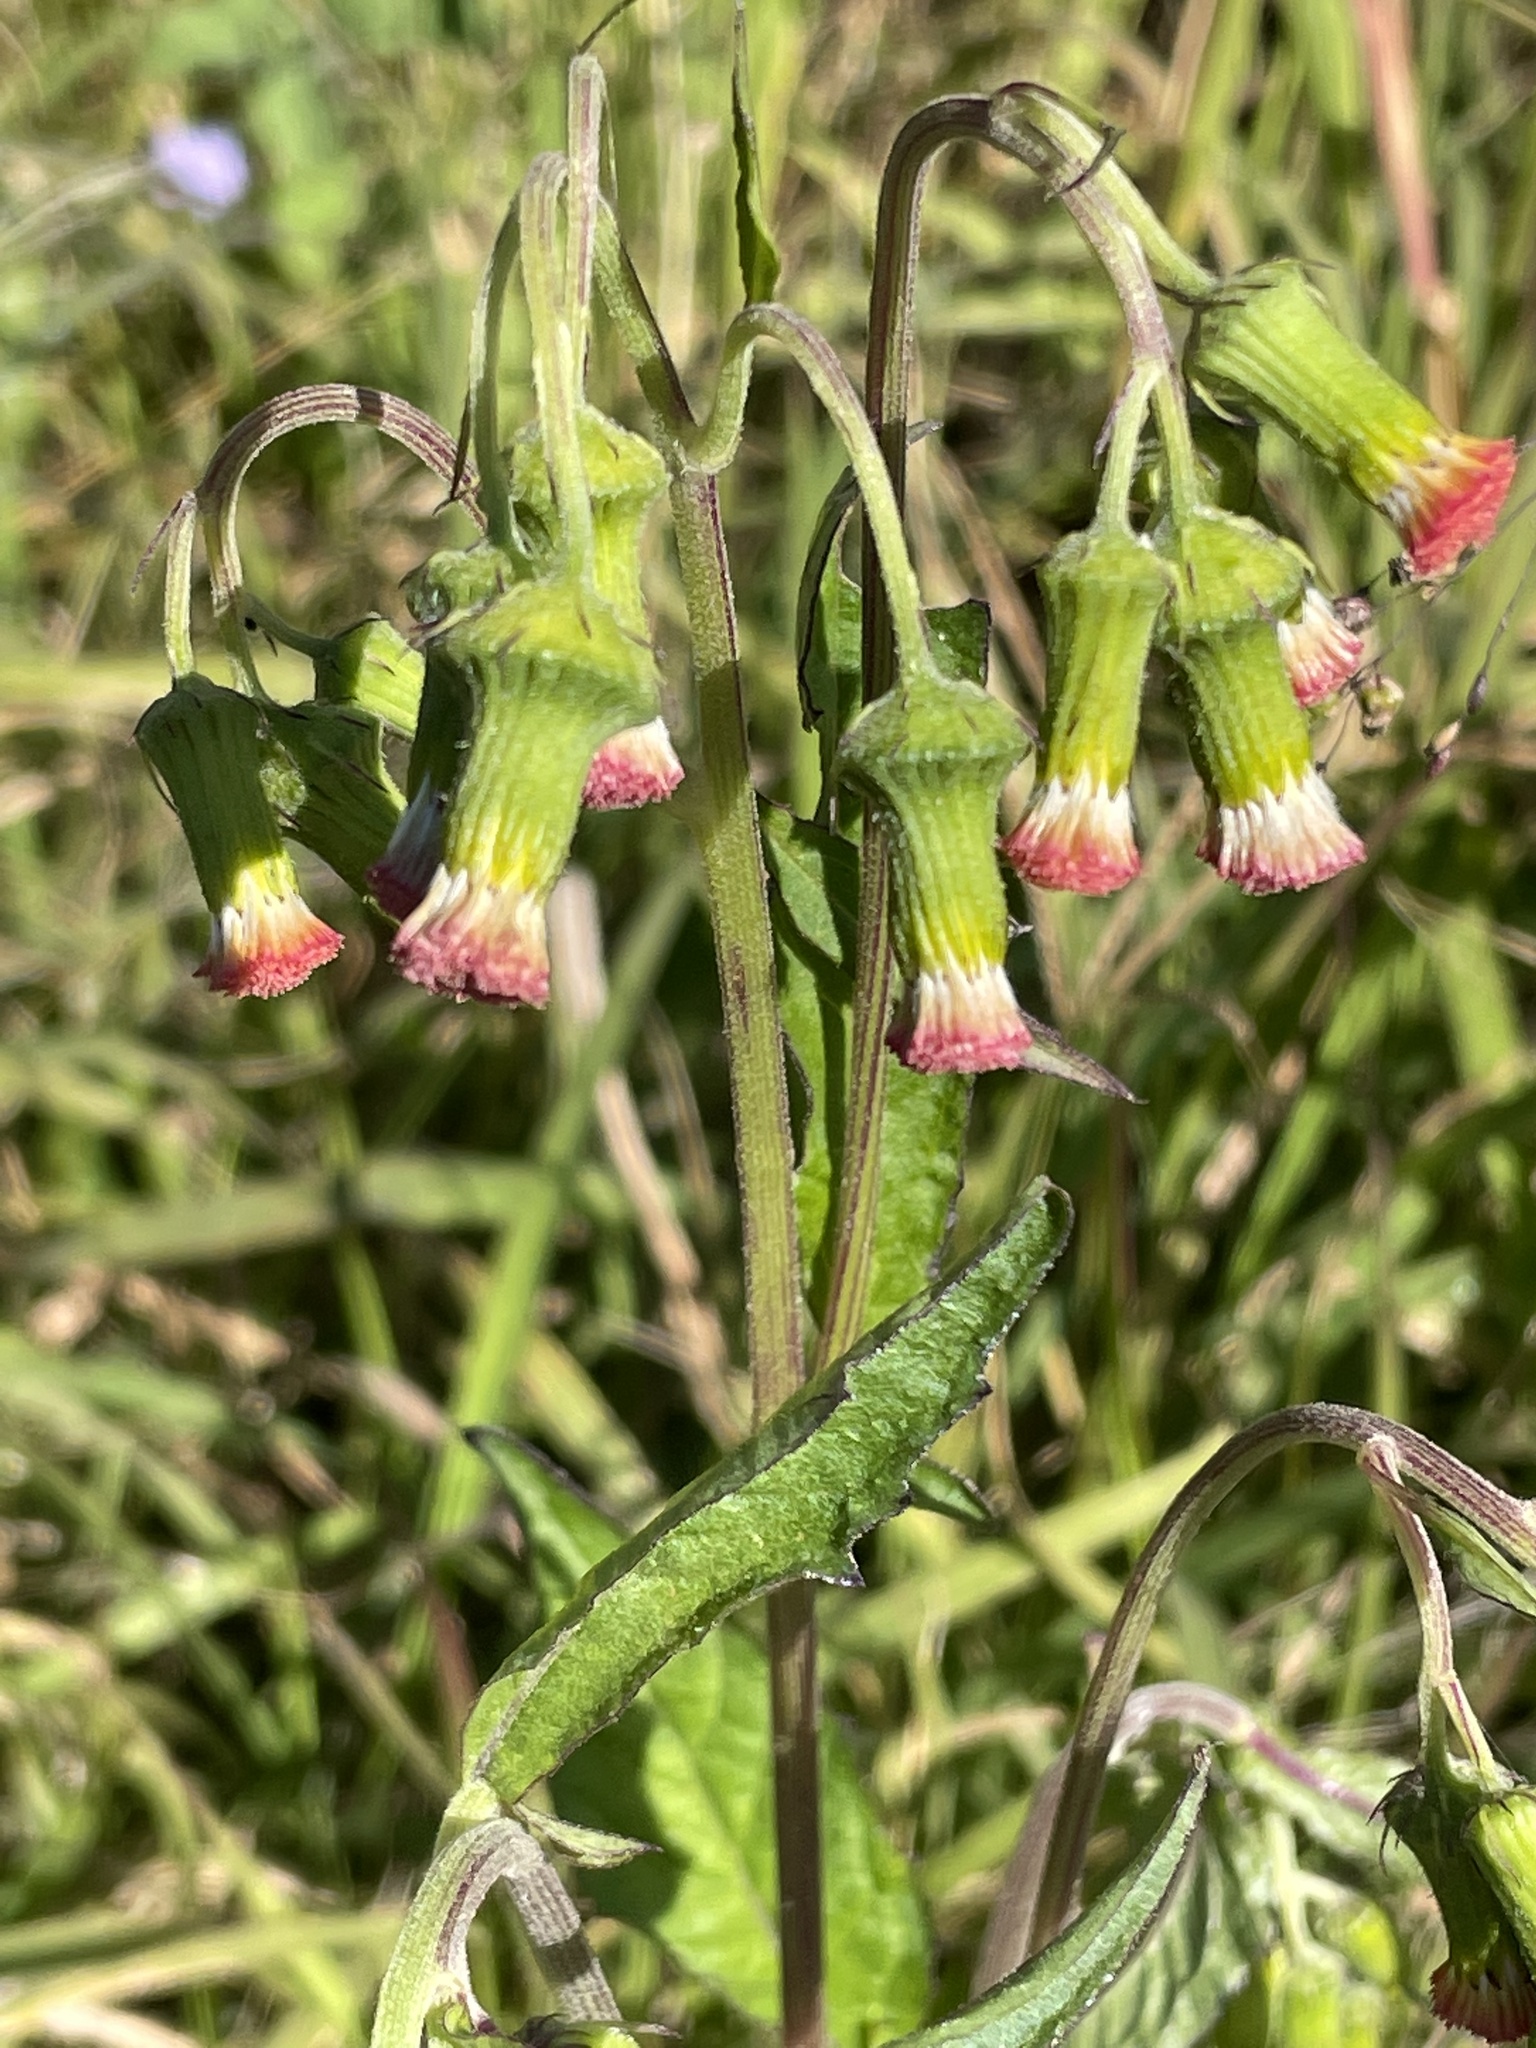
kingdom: Plantae
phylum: Tracheophyta
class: Magnoliopsida
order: Asterales
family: Asteraceae
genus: Crassocephalum
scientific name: Crassocephalum crepidioides
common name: Redflower ragleaf
